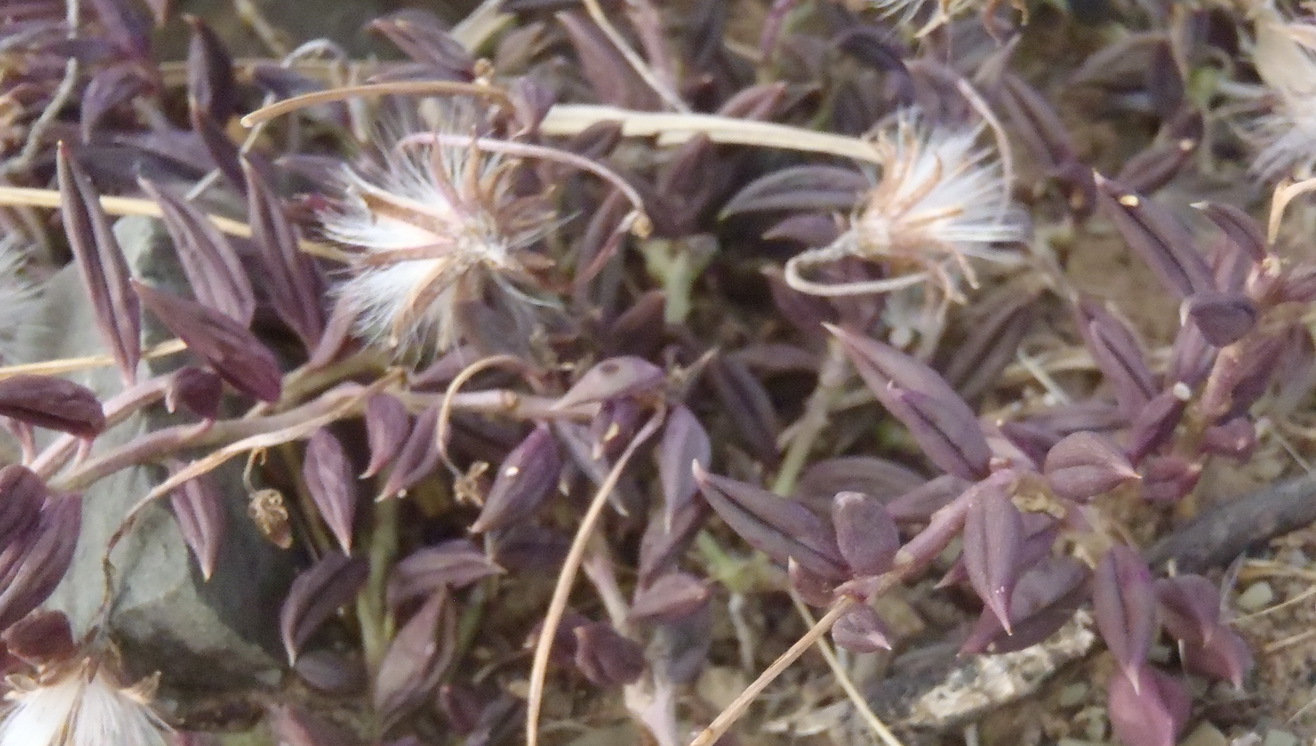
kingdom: Plantae
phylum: Tracheophyta
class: Magnoliopsida
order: Asterales
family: Asteraceae
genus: Curio
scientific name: Curio radicans
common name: Creeping-berry
